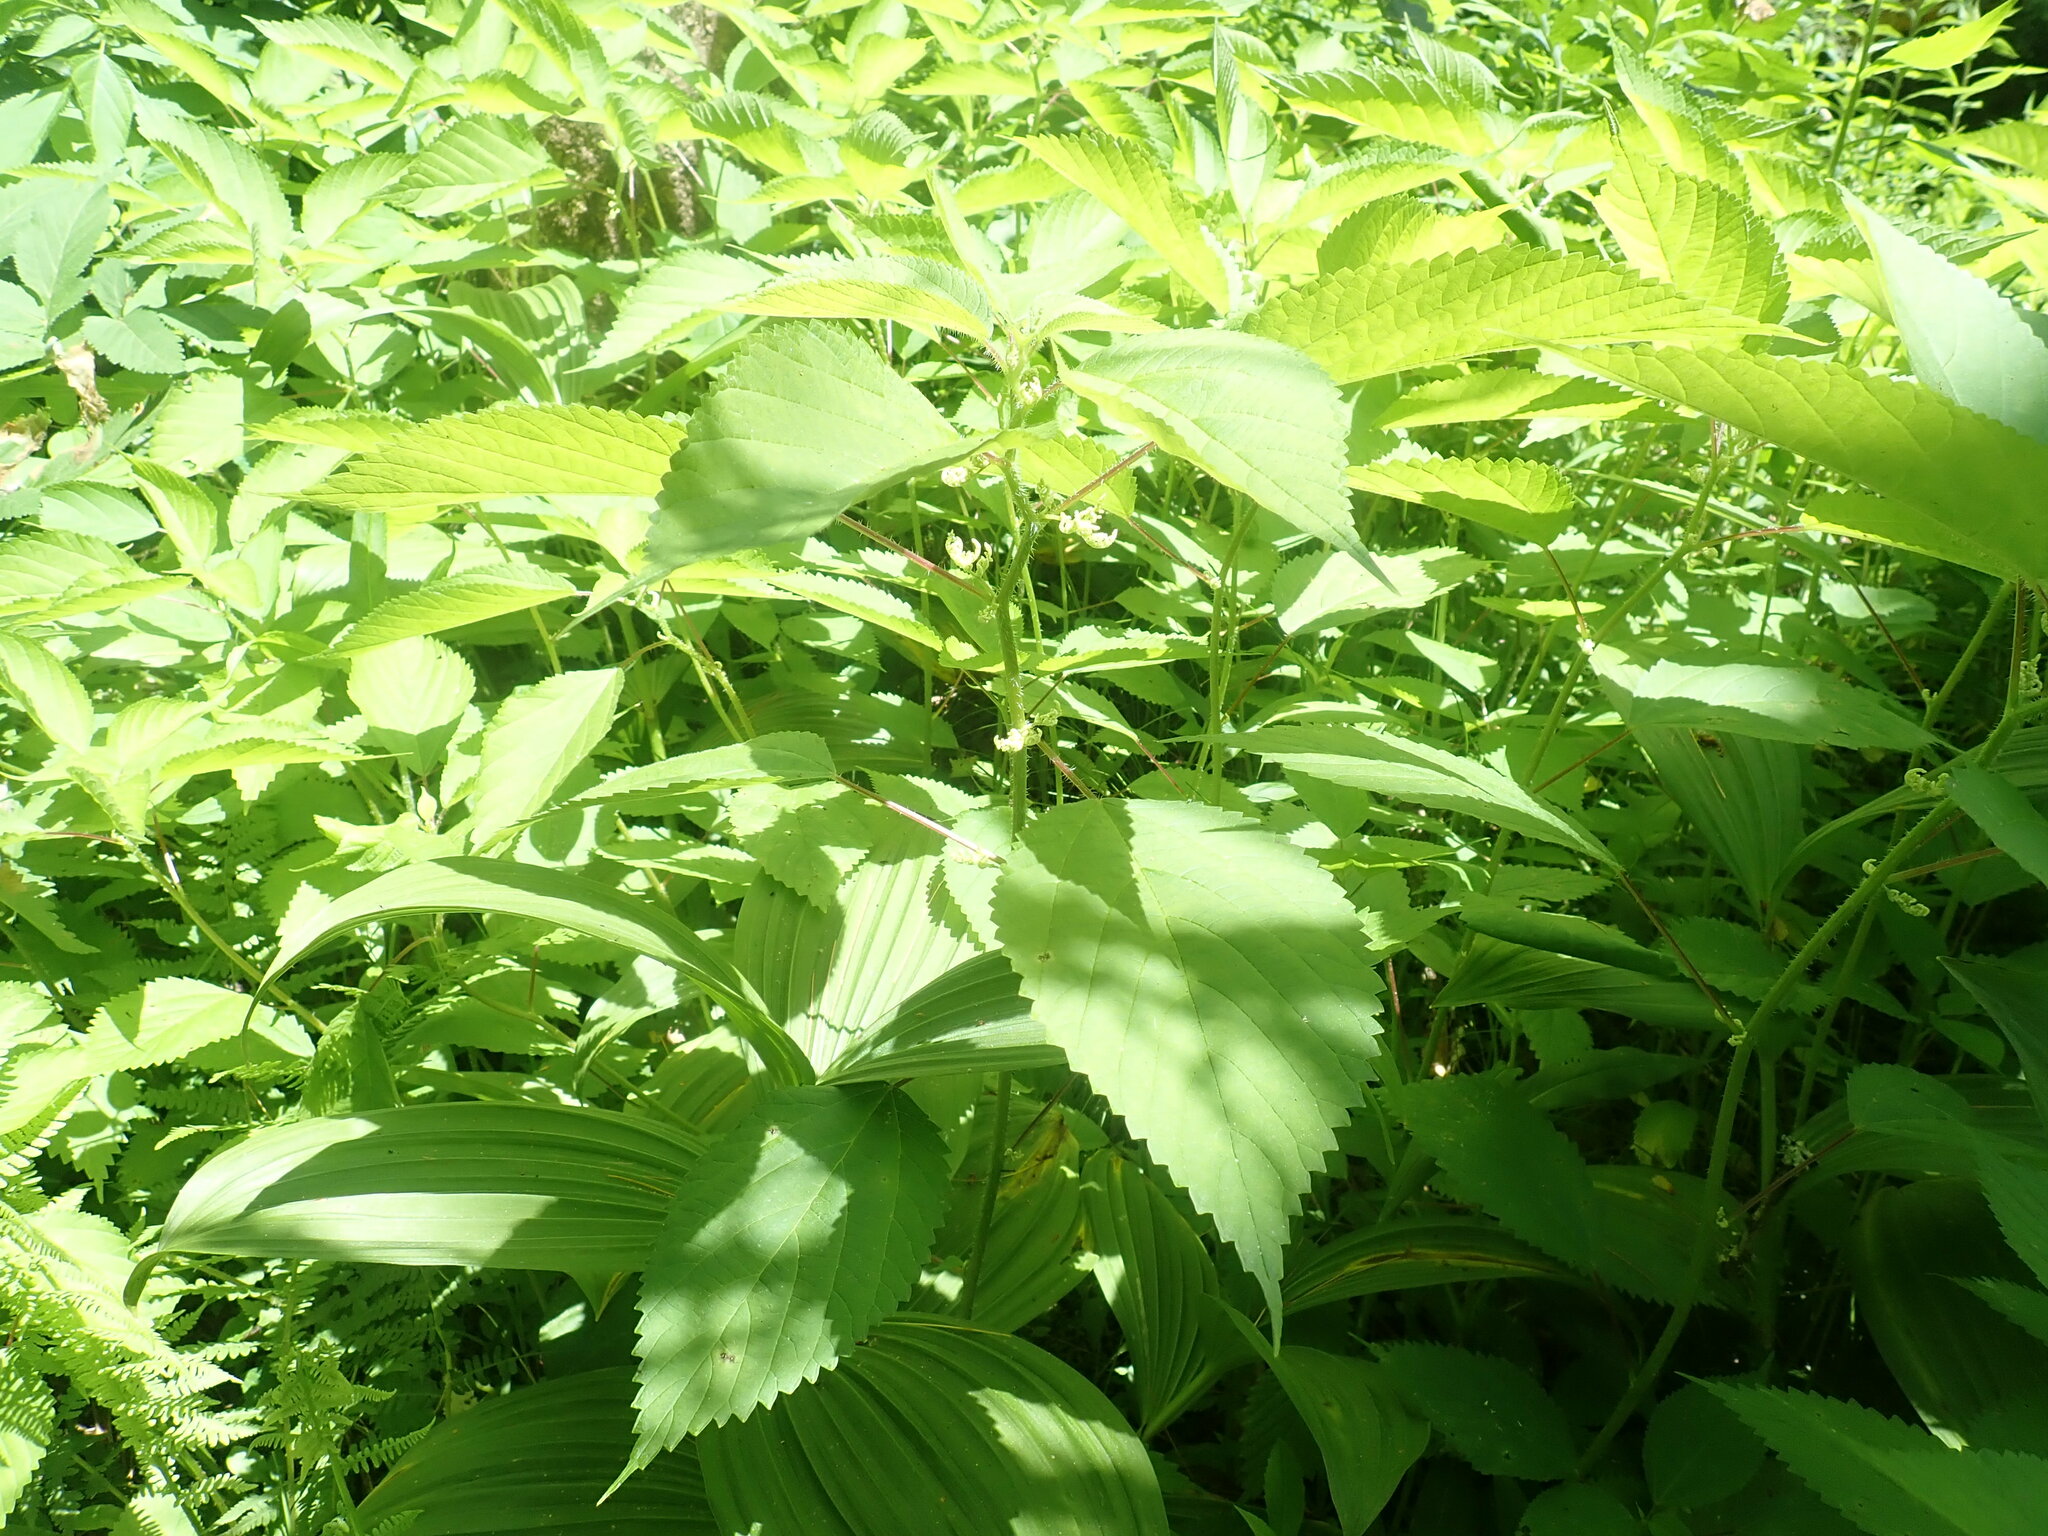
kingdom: Plantae
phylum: Tracheophyta
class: Magnoliopsida
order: Rosales
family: Urticaceae
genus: Laportea
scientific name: Laportea canadensis
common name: Canada nettle
